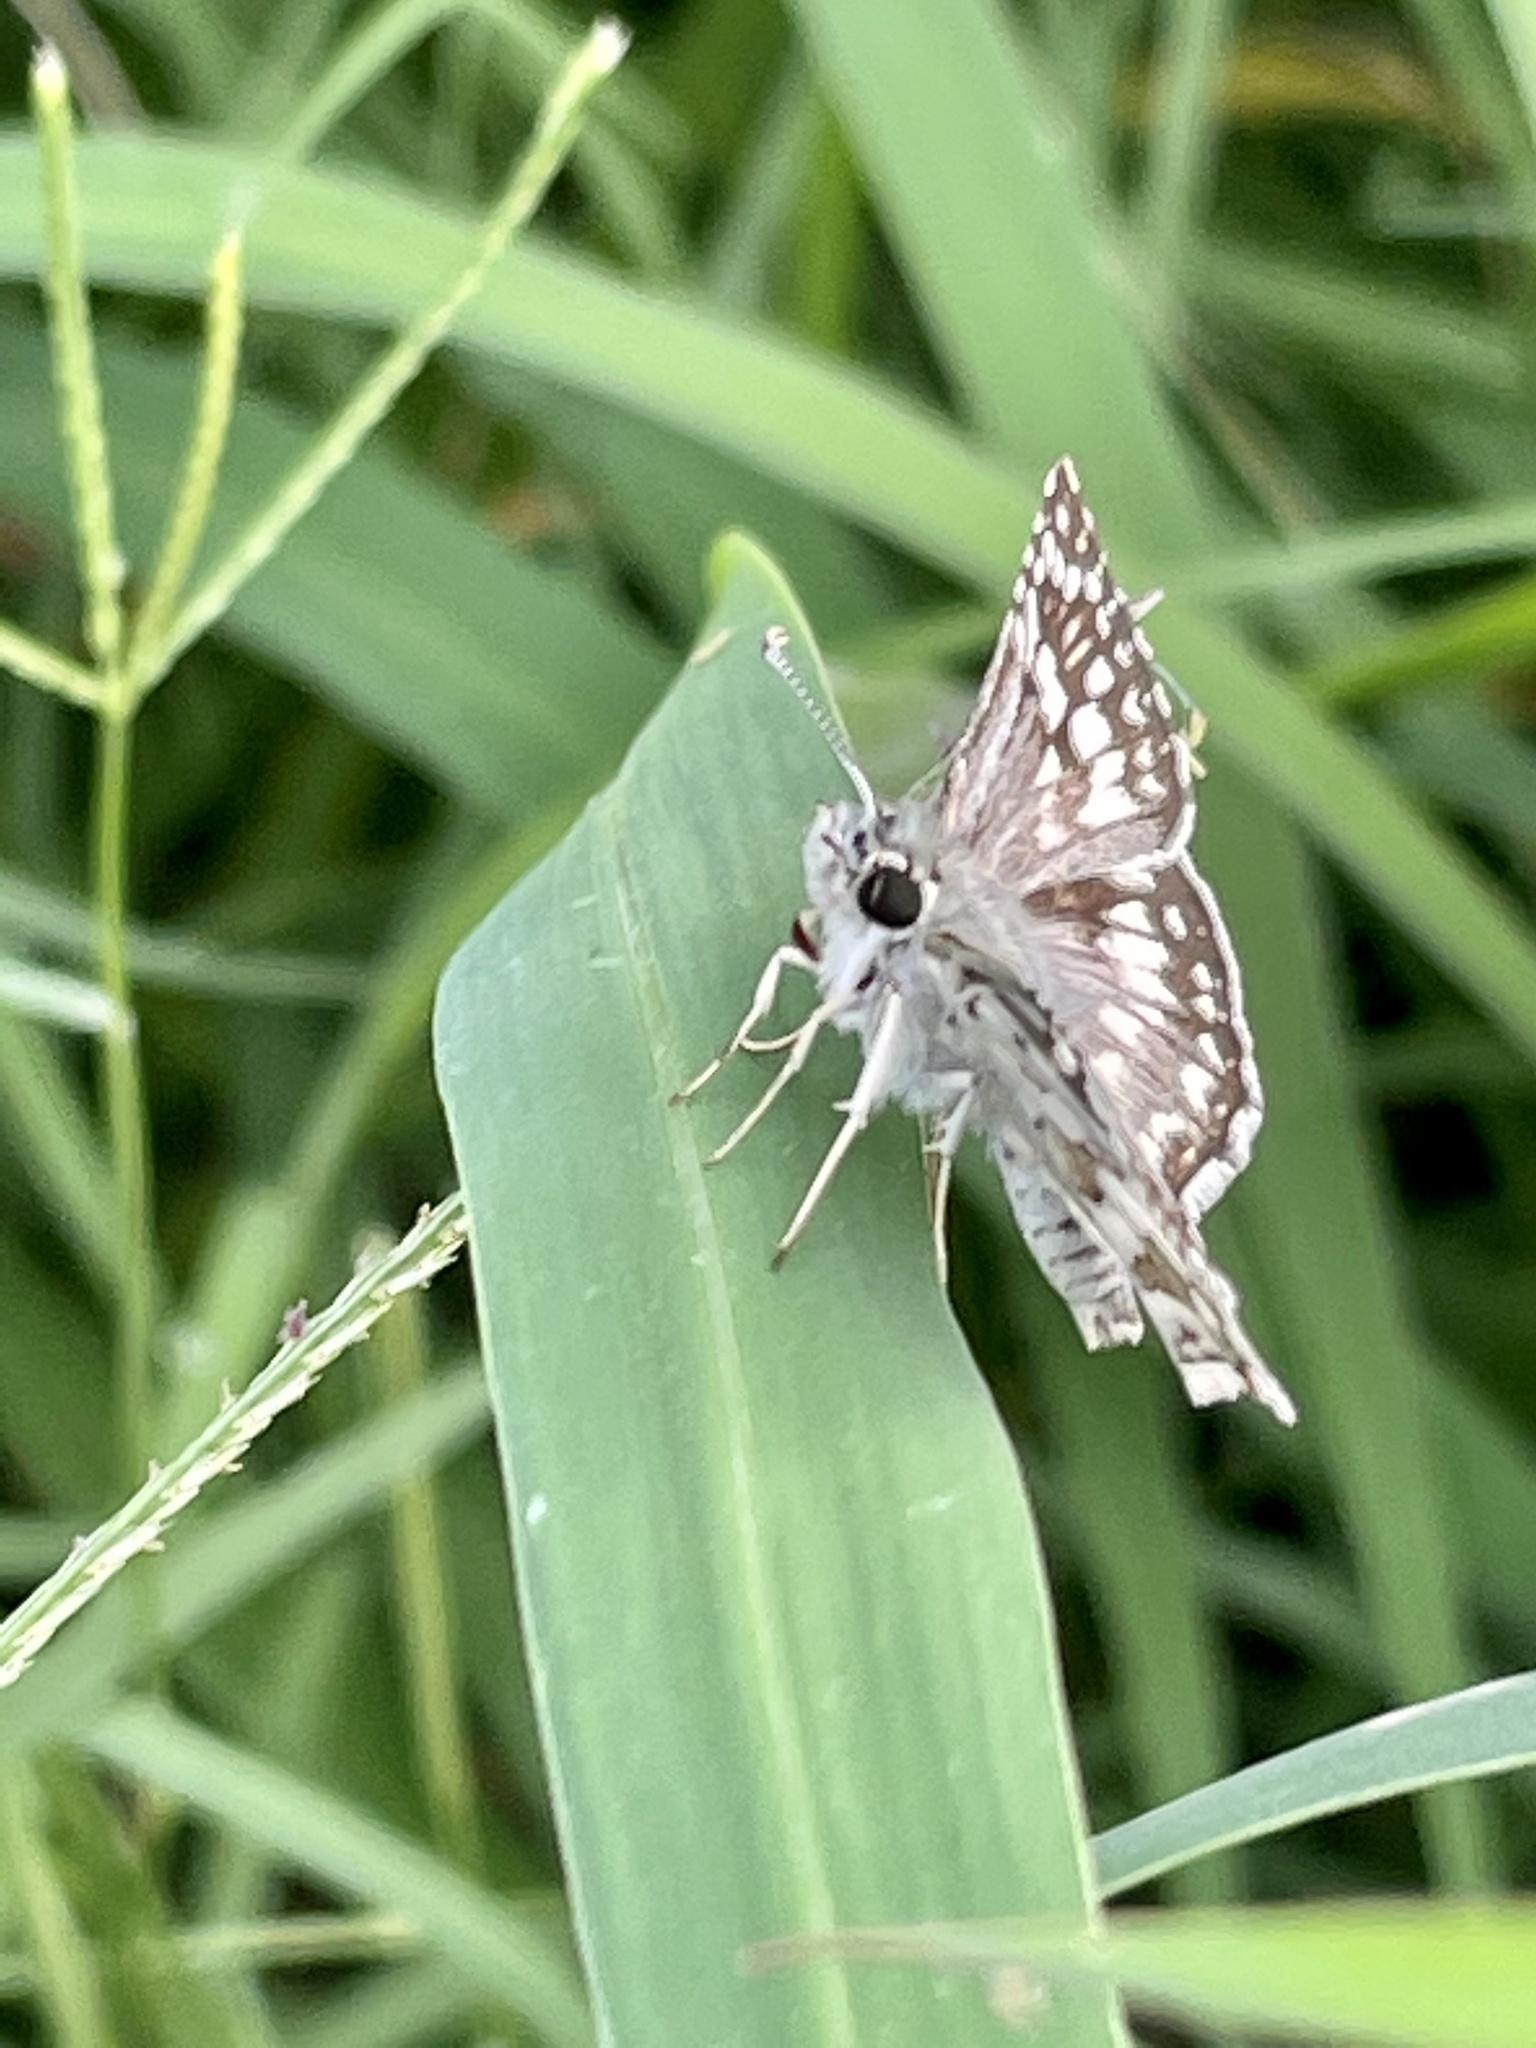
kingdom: Animalia
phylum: Arthropoda
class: Insecta
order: Lepidoptera
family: Hesperiidae
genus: Burnsius
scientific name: Burnsius communis
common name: Common checkered-skipper
